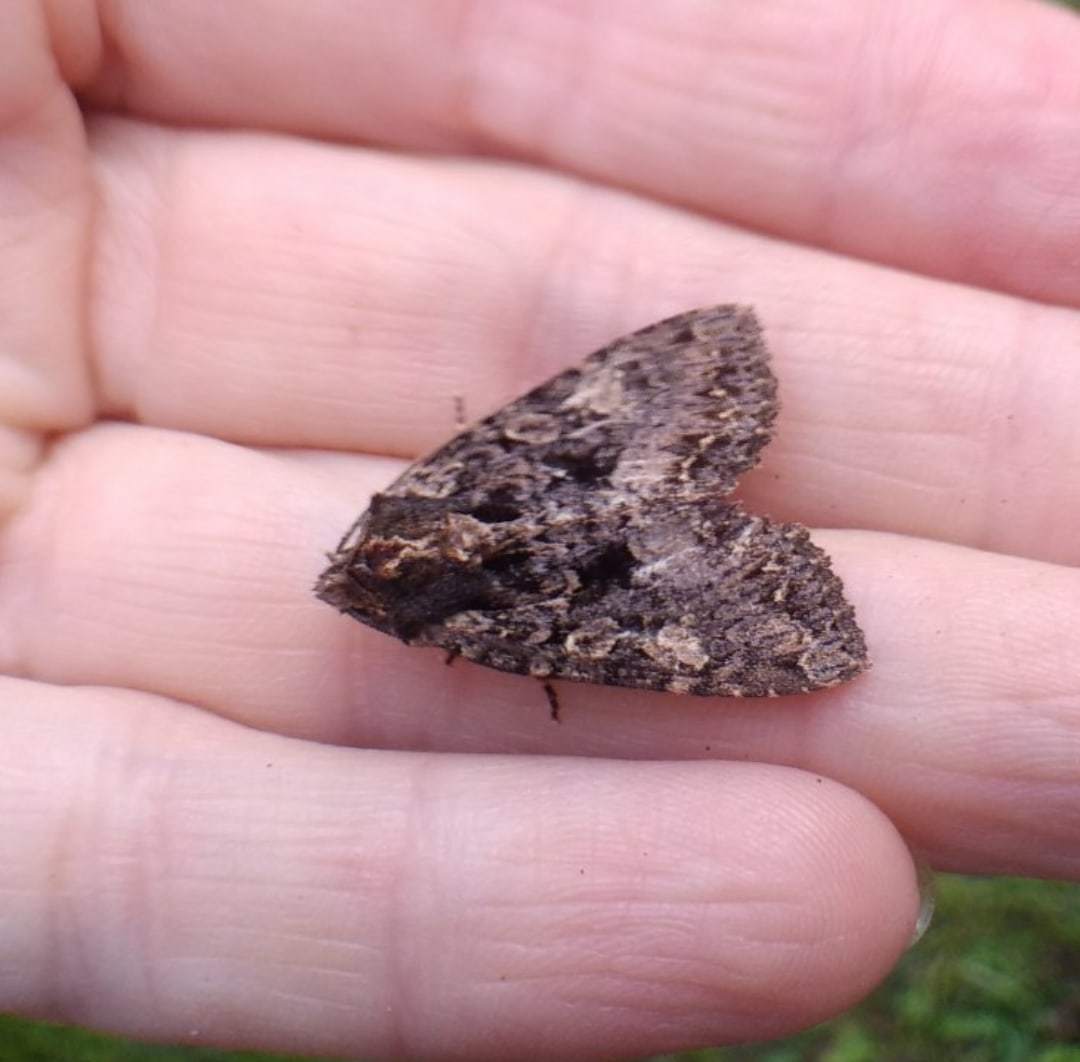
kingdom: Animalia
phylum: Arthropoda
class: Insecta
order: Lepidoptera
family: Noctuidae
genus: Lacanobia
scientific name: Lacanobia thalassina
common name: Pale-shouldered brocade
